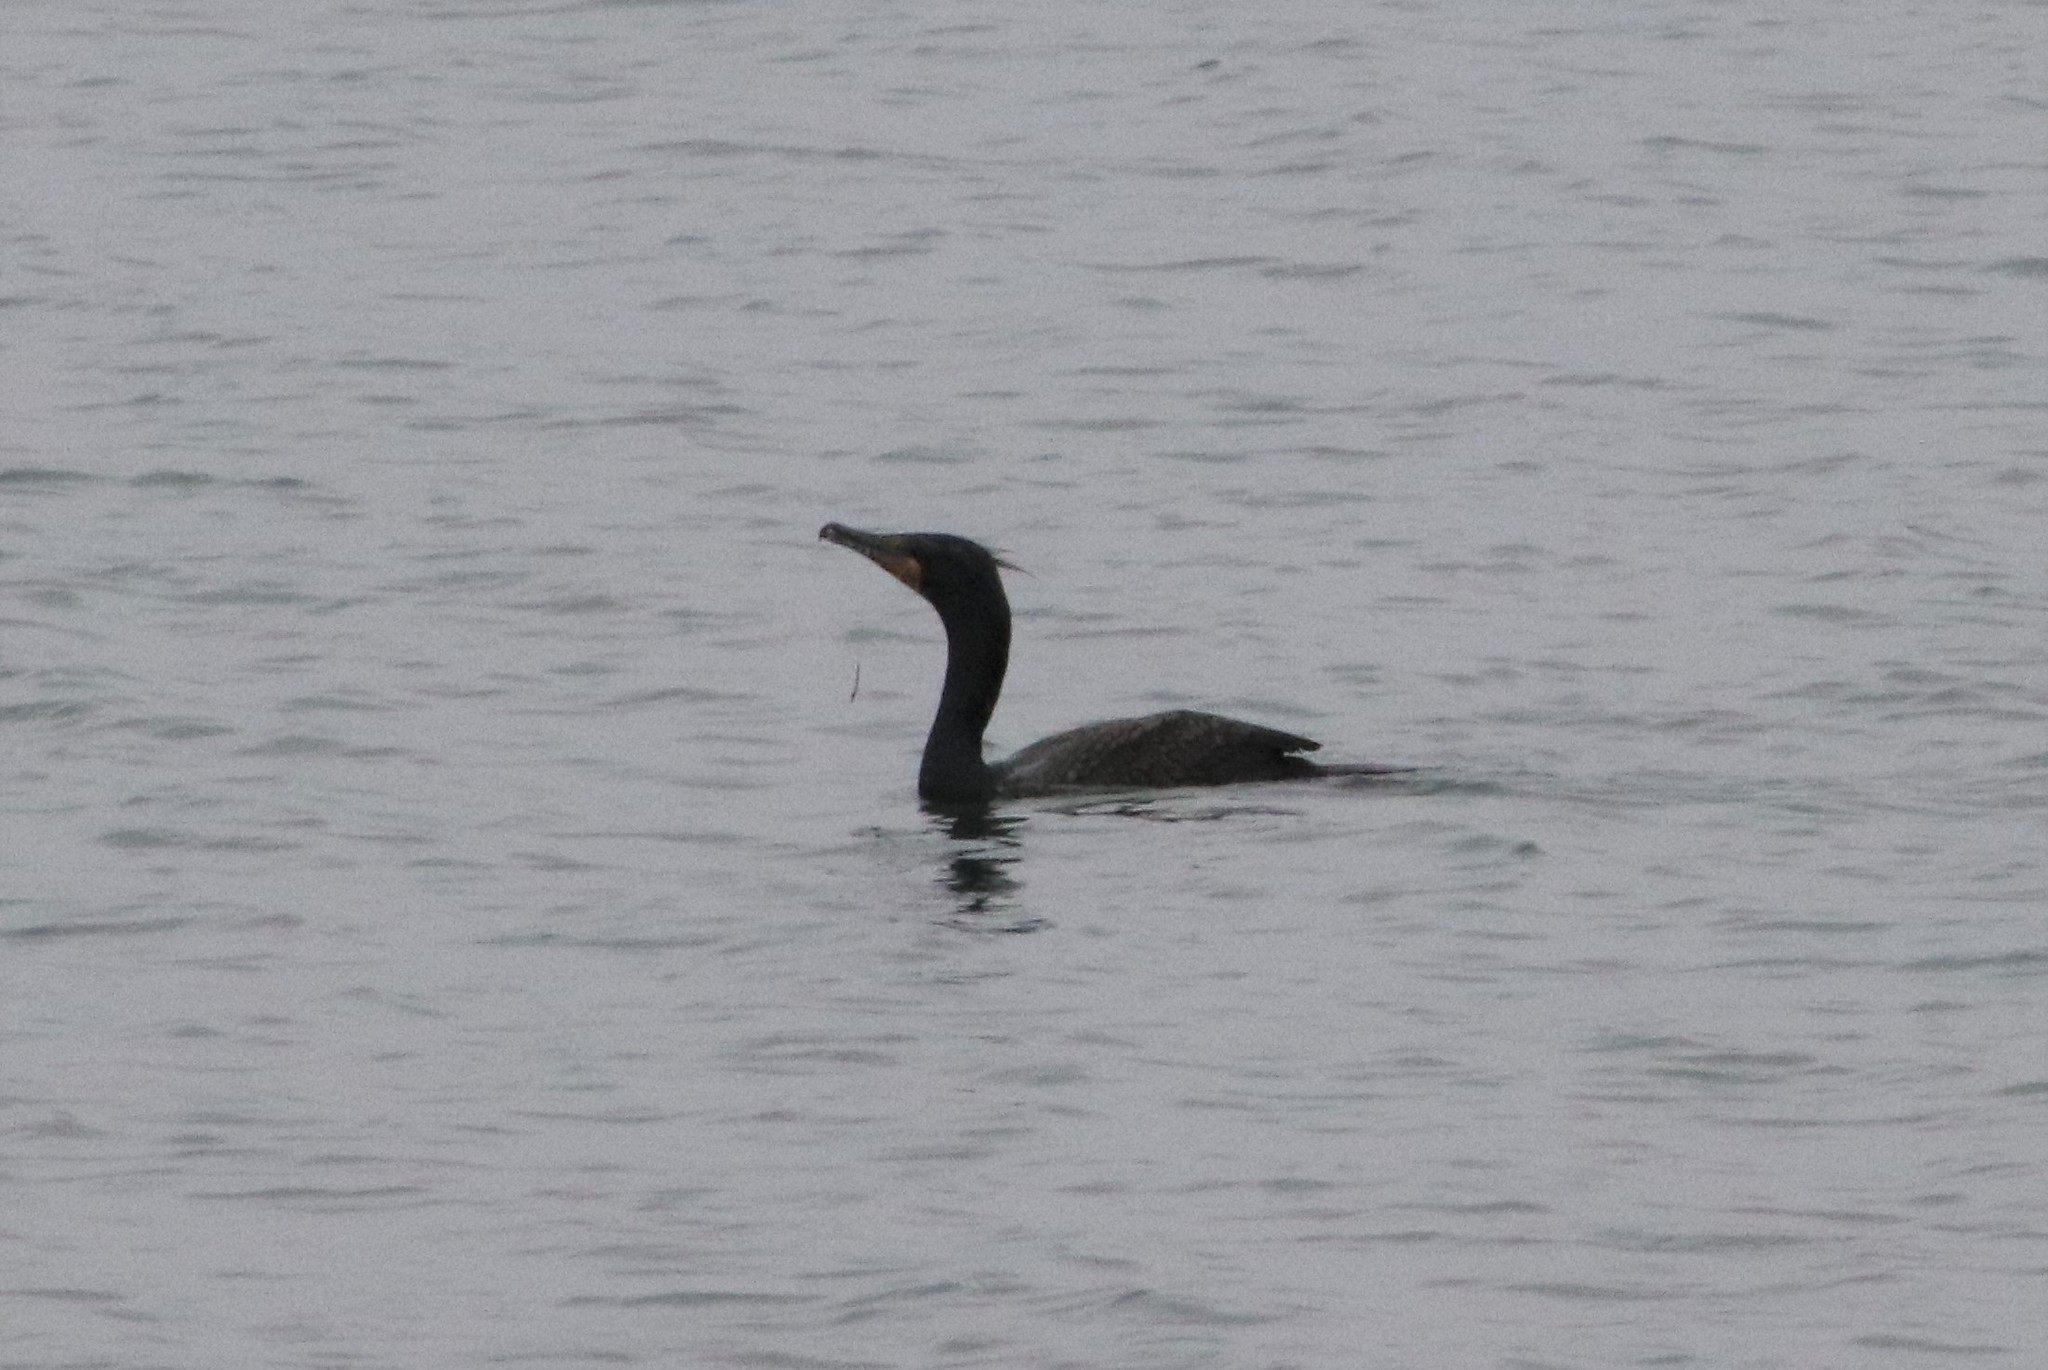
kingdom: Animalia
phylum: Chordata
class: Aves
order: Suliformes
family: Phalacrocoracidae
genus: Urile
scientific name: Urile penicillatus
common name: Brandt's cormorant
